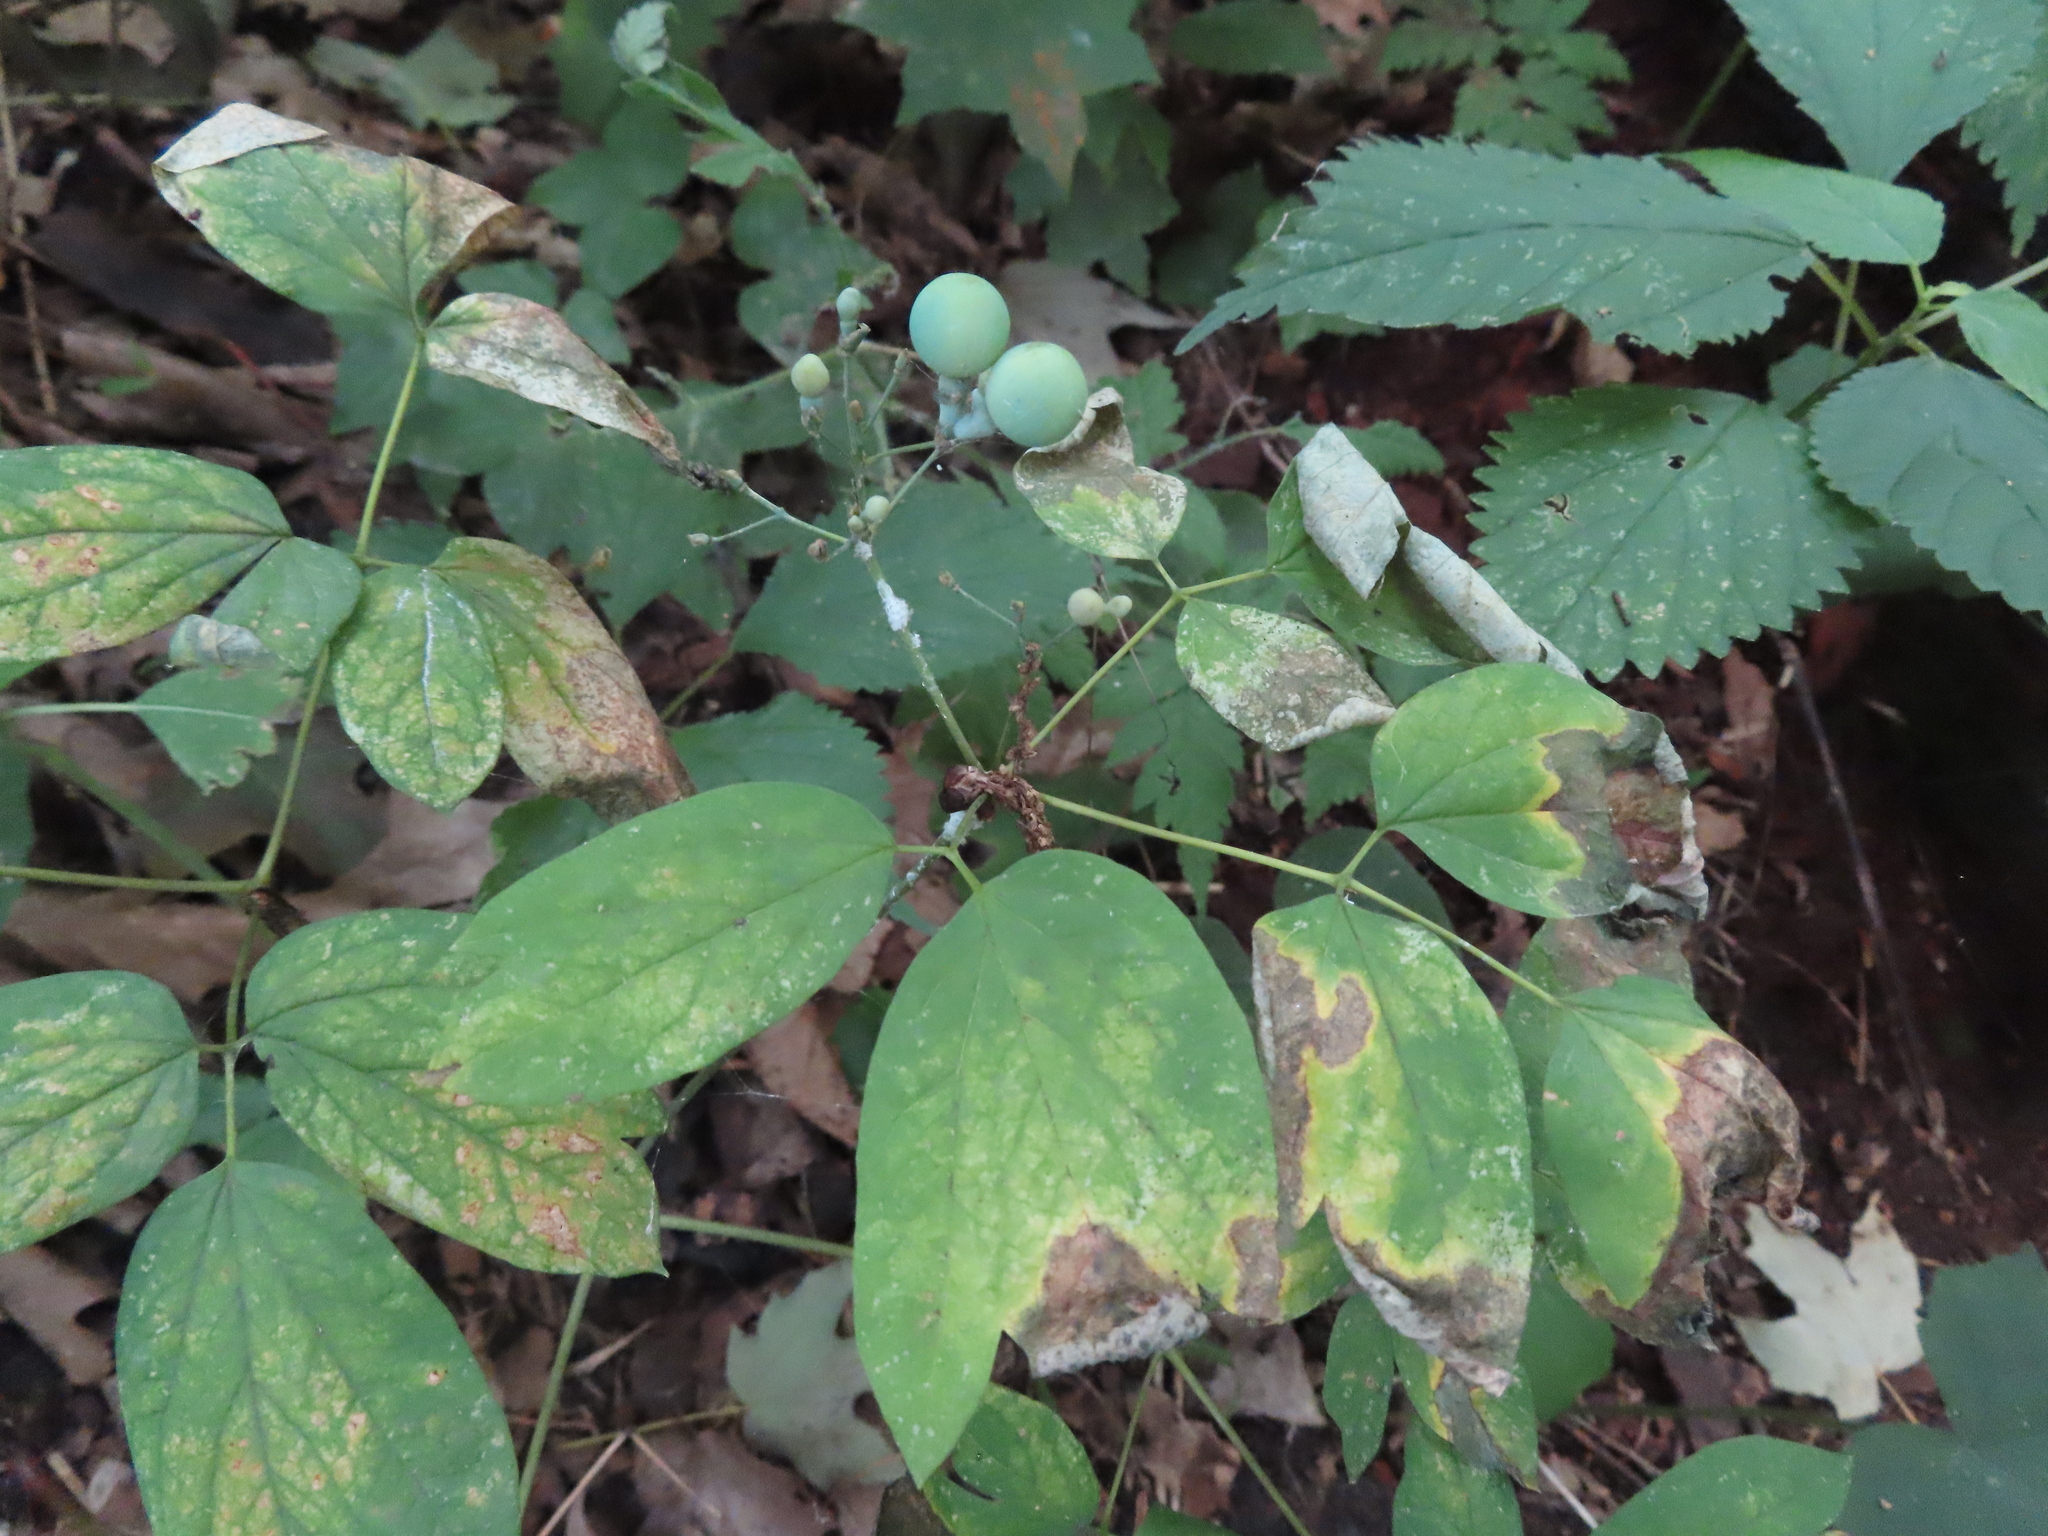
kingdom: Plantae
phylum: Tracheophyta
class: Magnoliopsida
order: Ranunculales
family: Berberidaceae
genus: Caulophyllum
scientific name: Caulophyllum thalictroides
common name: Blue cohosh
